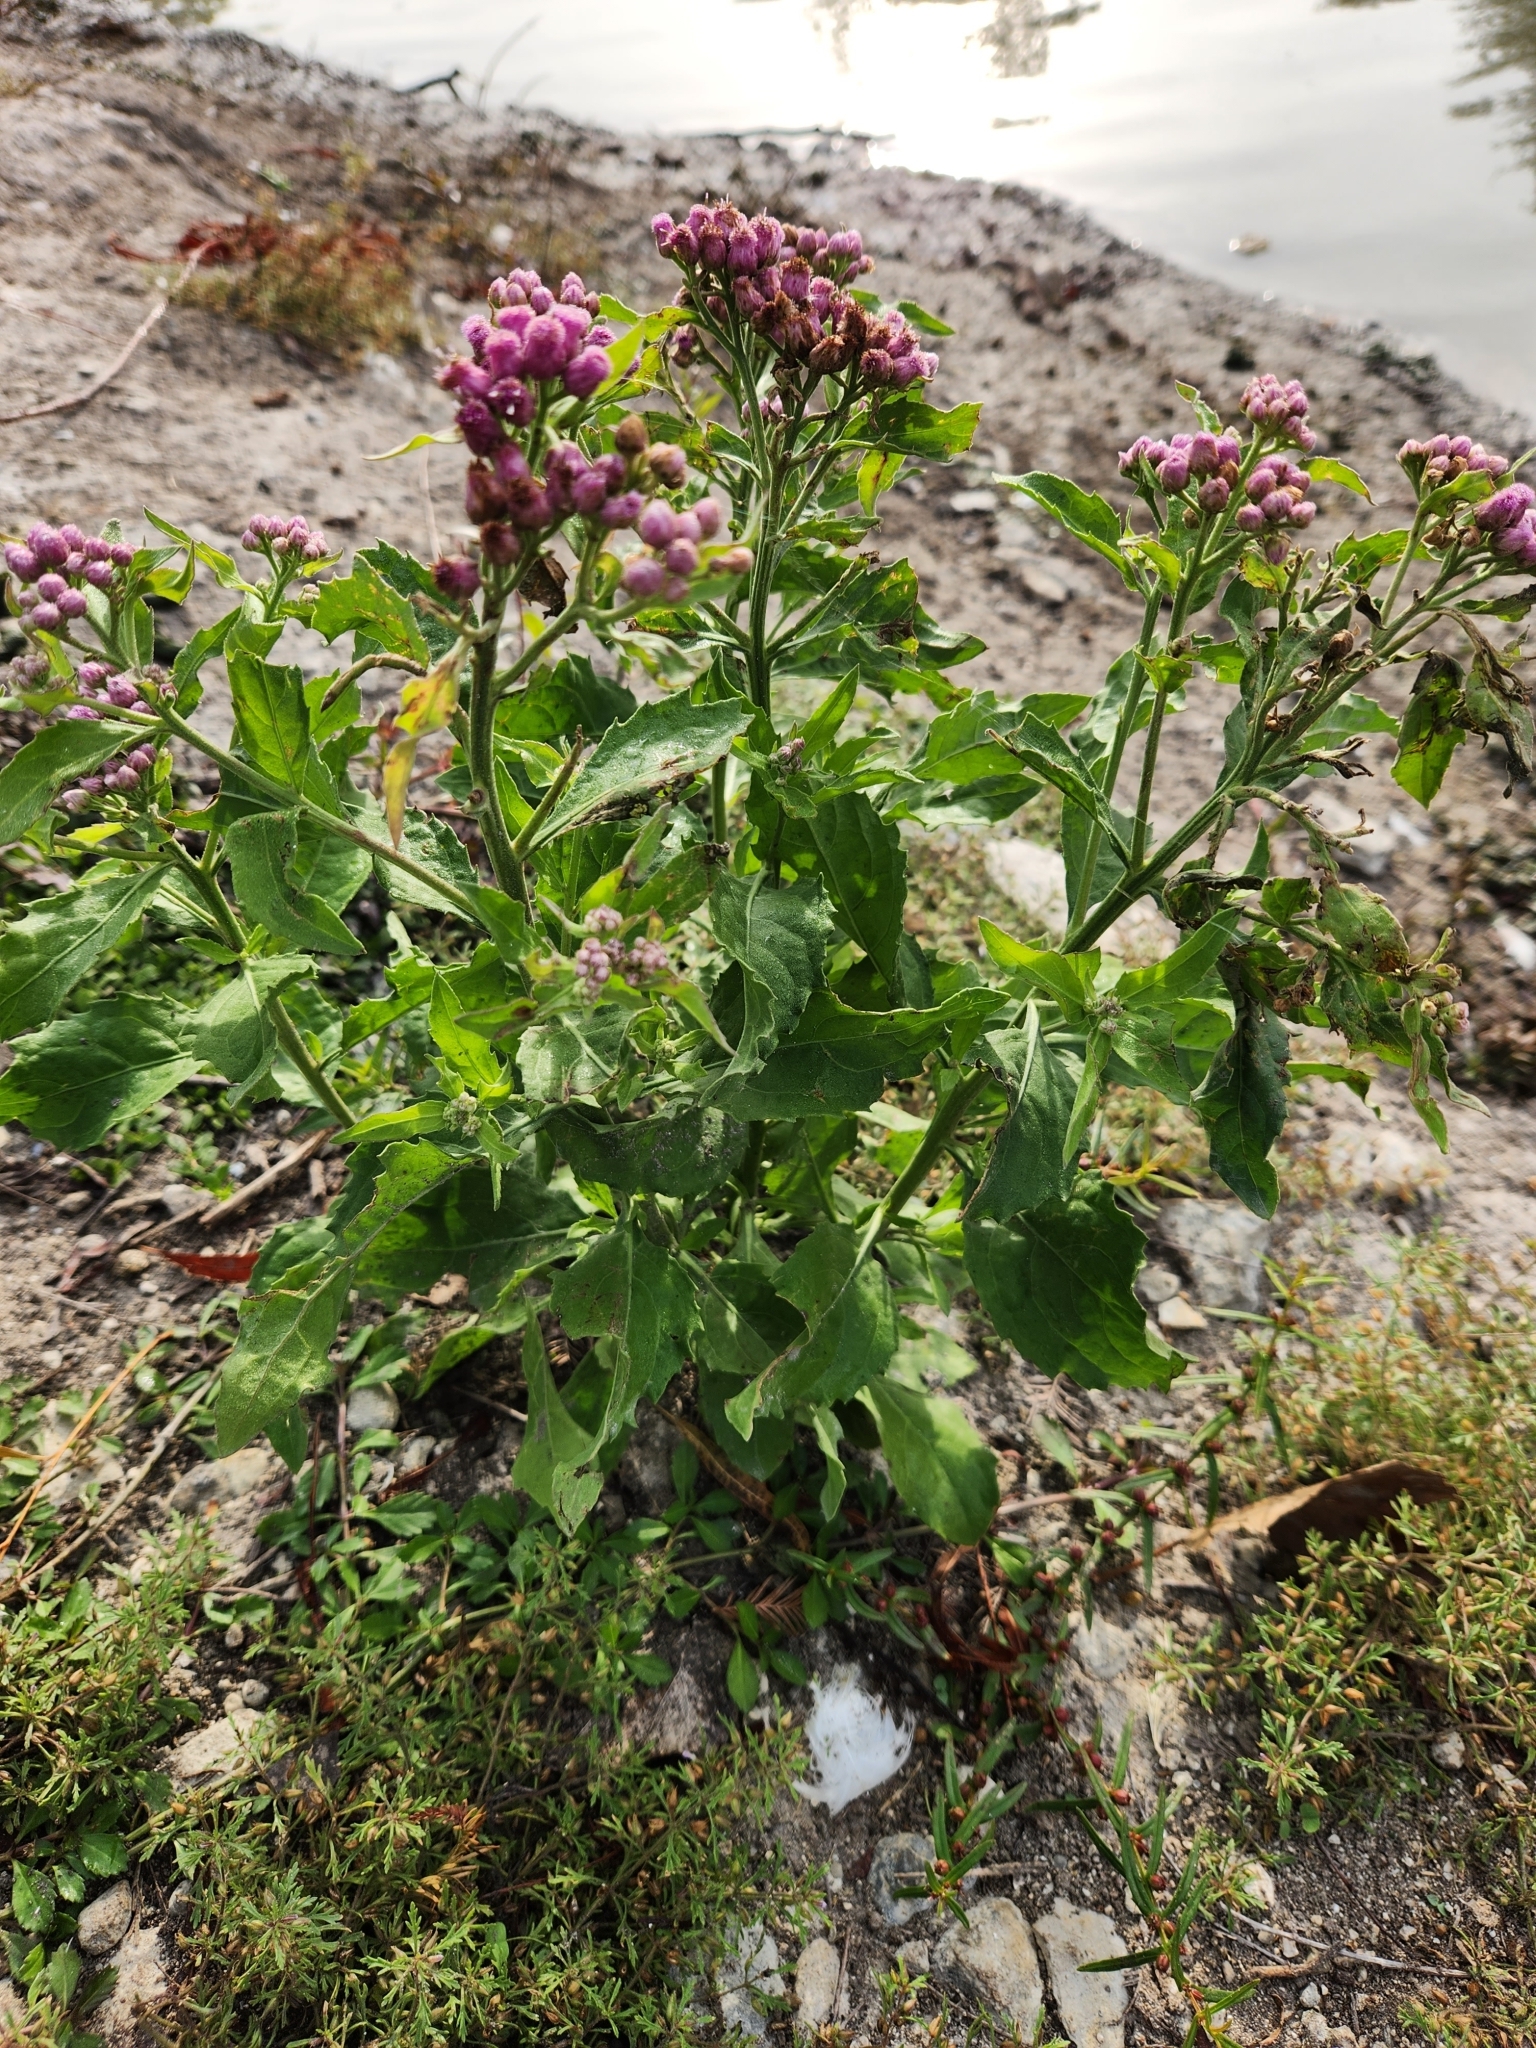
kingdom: Plantae
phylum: Tracheophyta
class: Magnoliopsida
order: Asterales
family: Asteraceae
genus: Pluchea
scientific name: Pluchea odorata
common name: Saltmarsh fleabane
